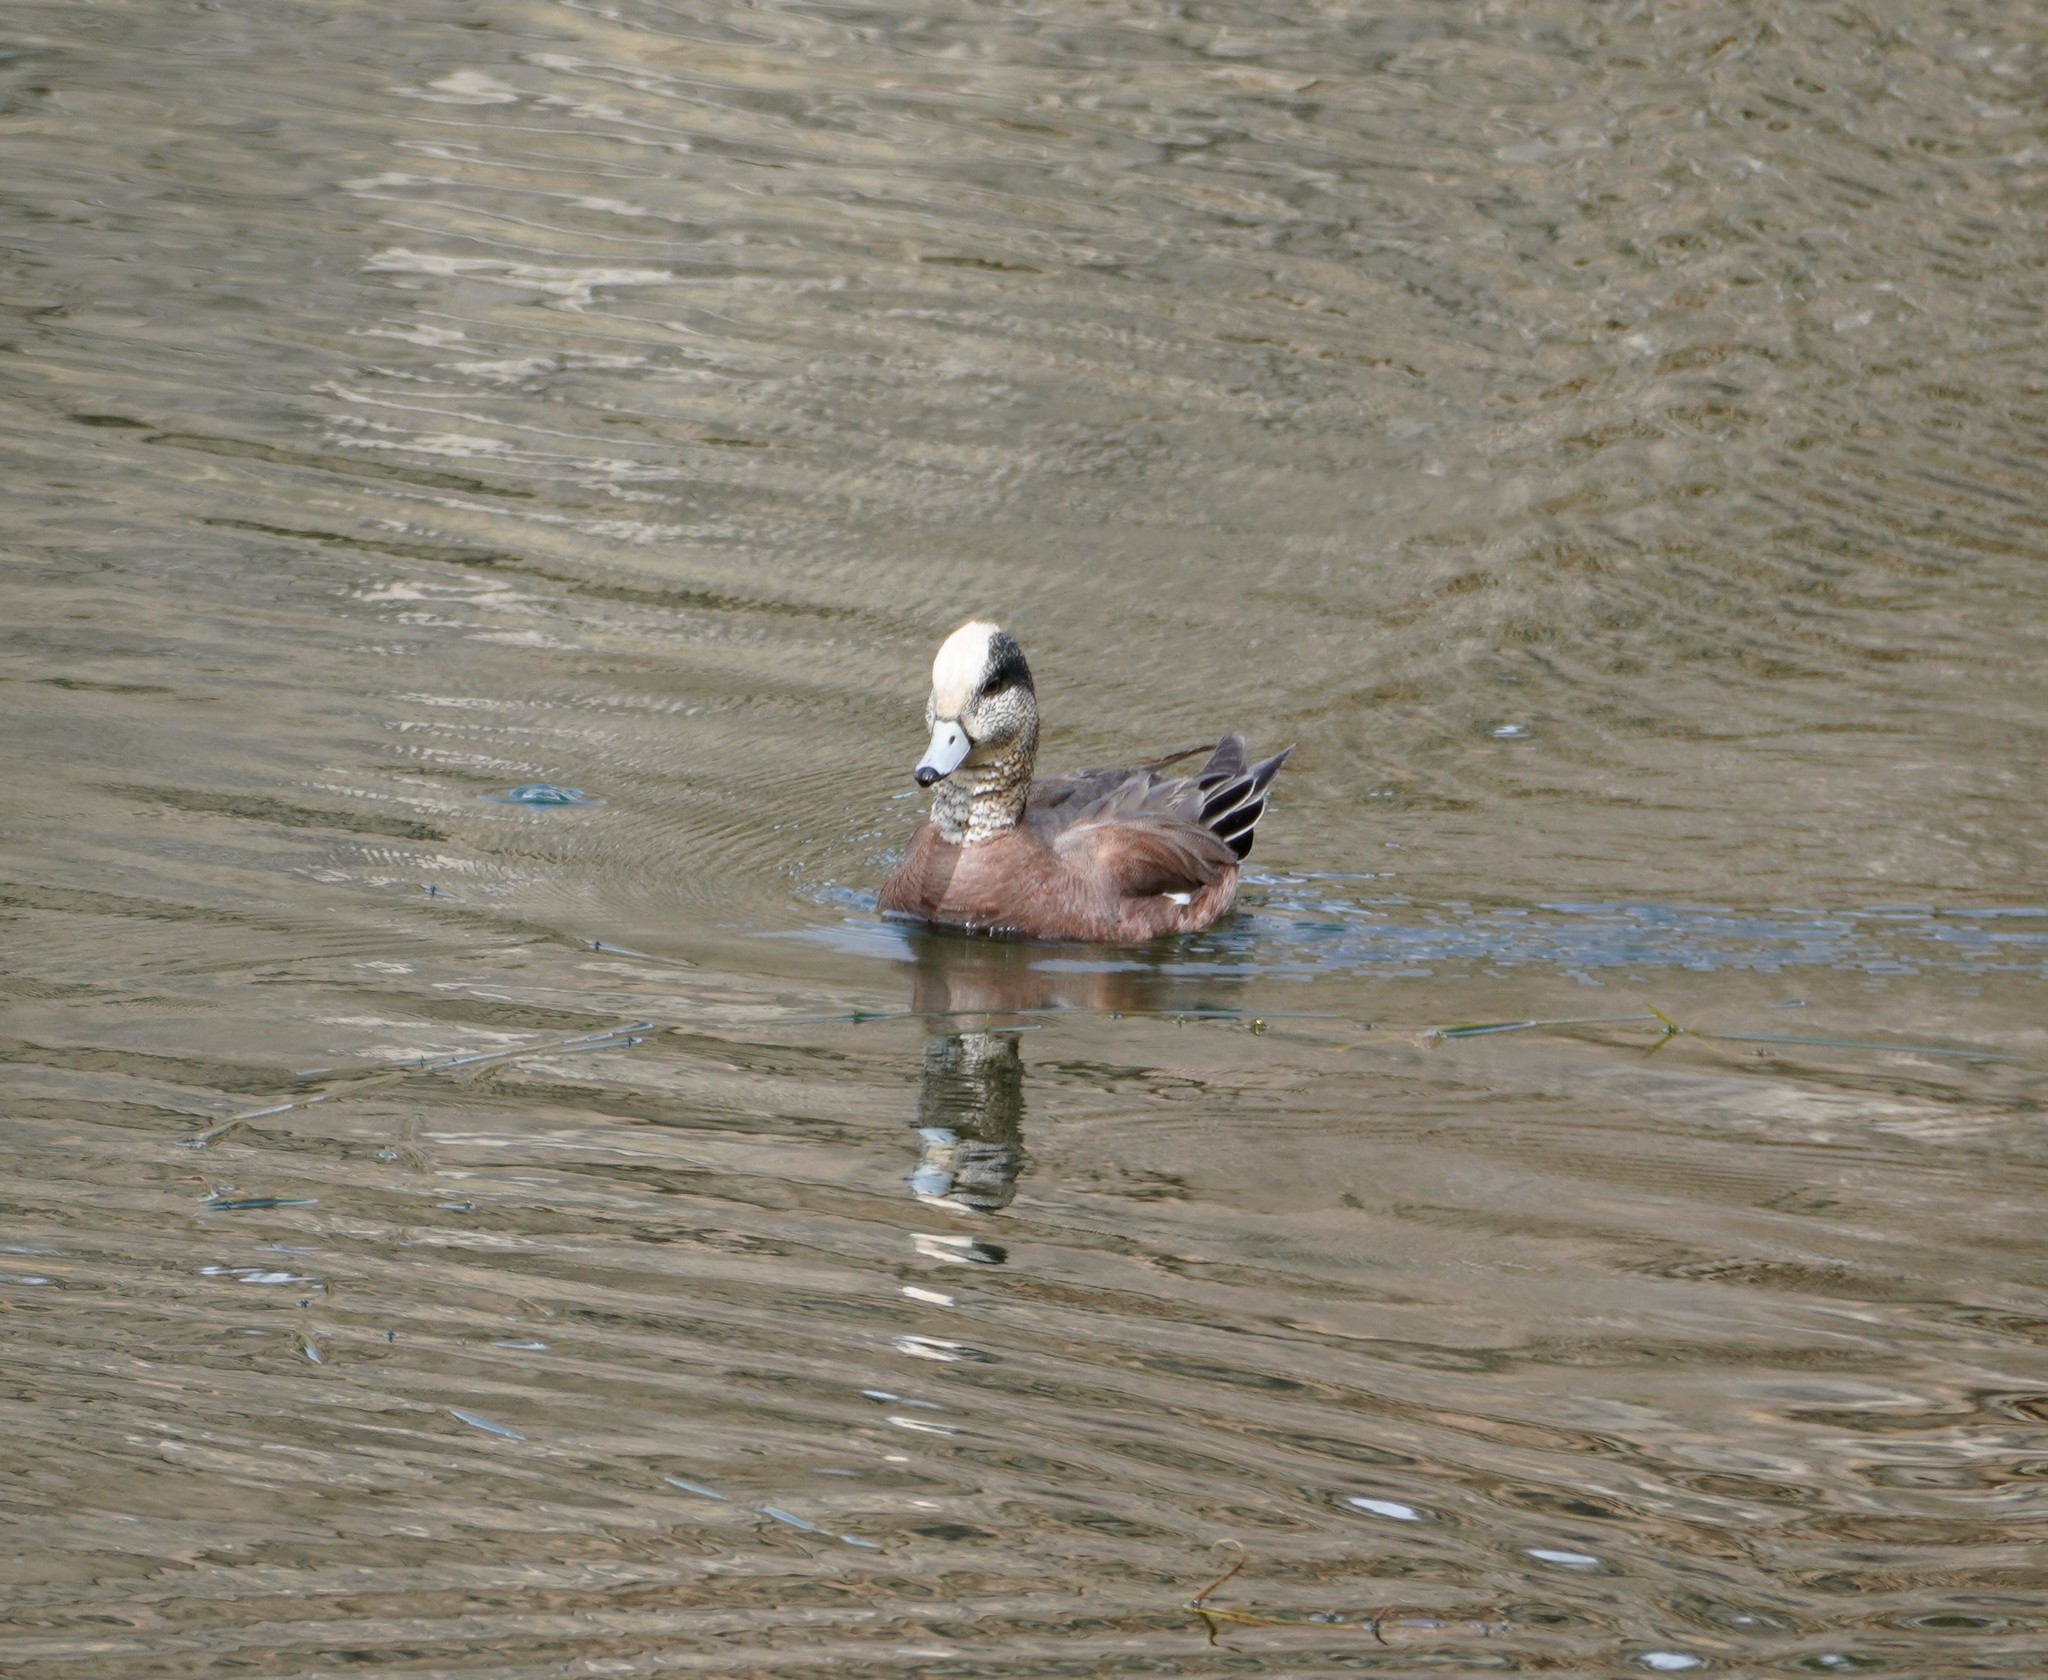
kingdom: Animalia
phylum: Chordata
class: Aves
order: Anseriformes
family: Anatidae
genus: Mareca
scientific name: Mareca americana
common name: American wigeon
